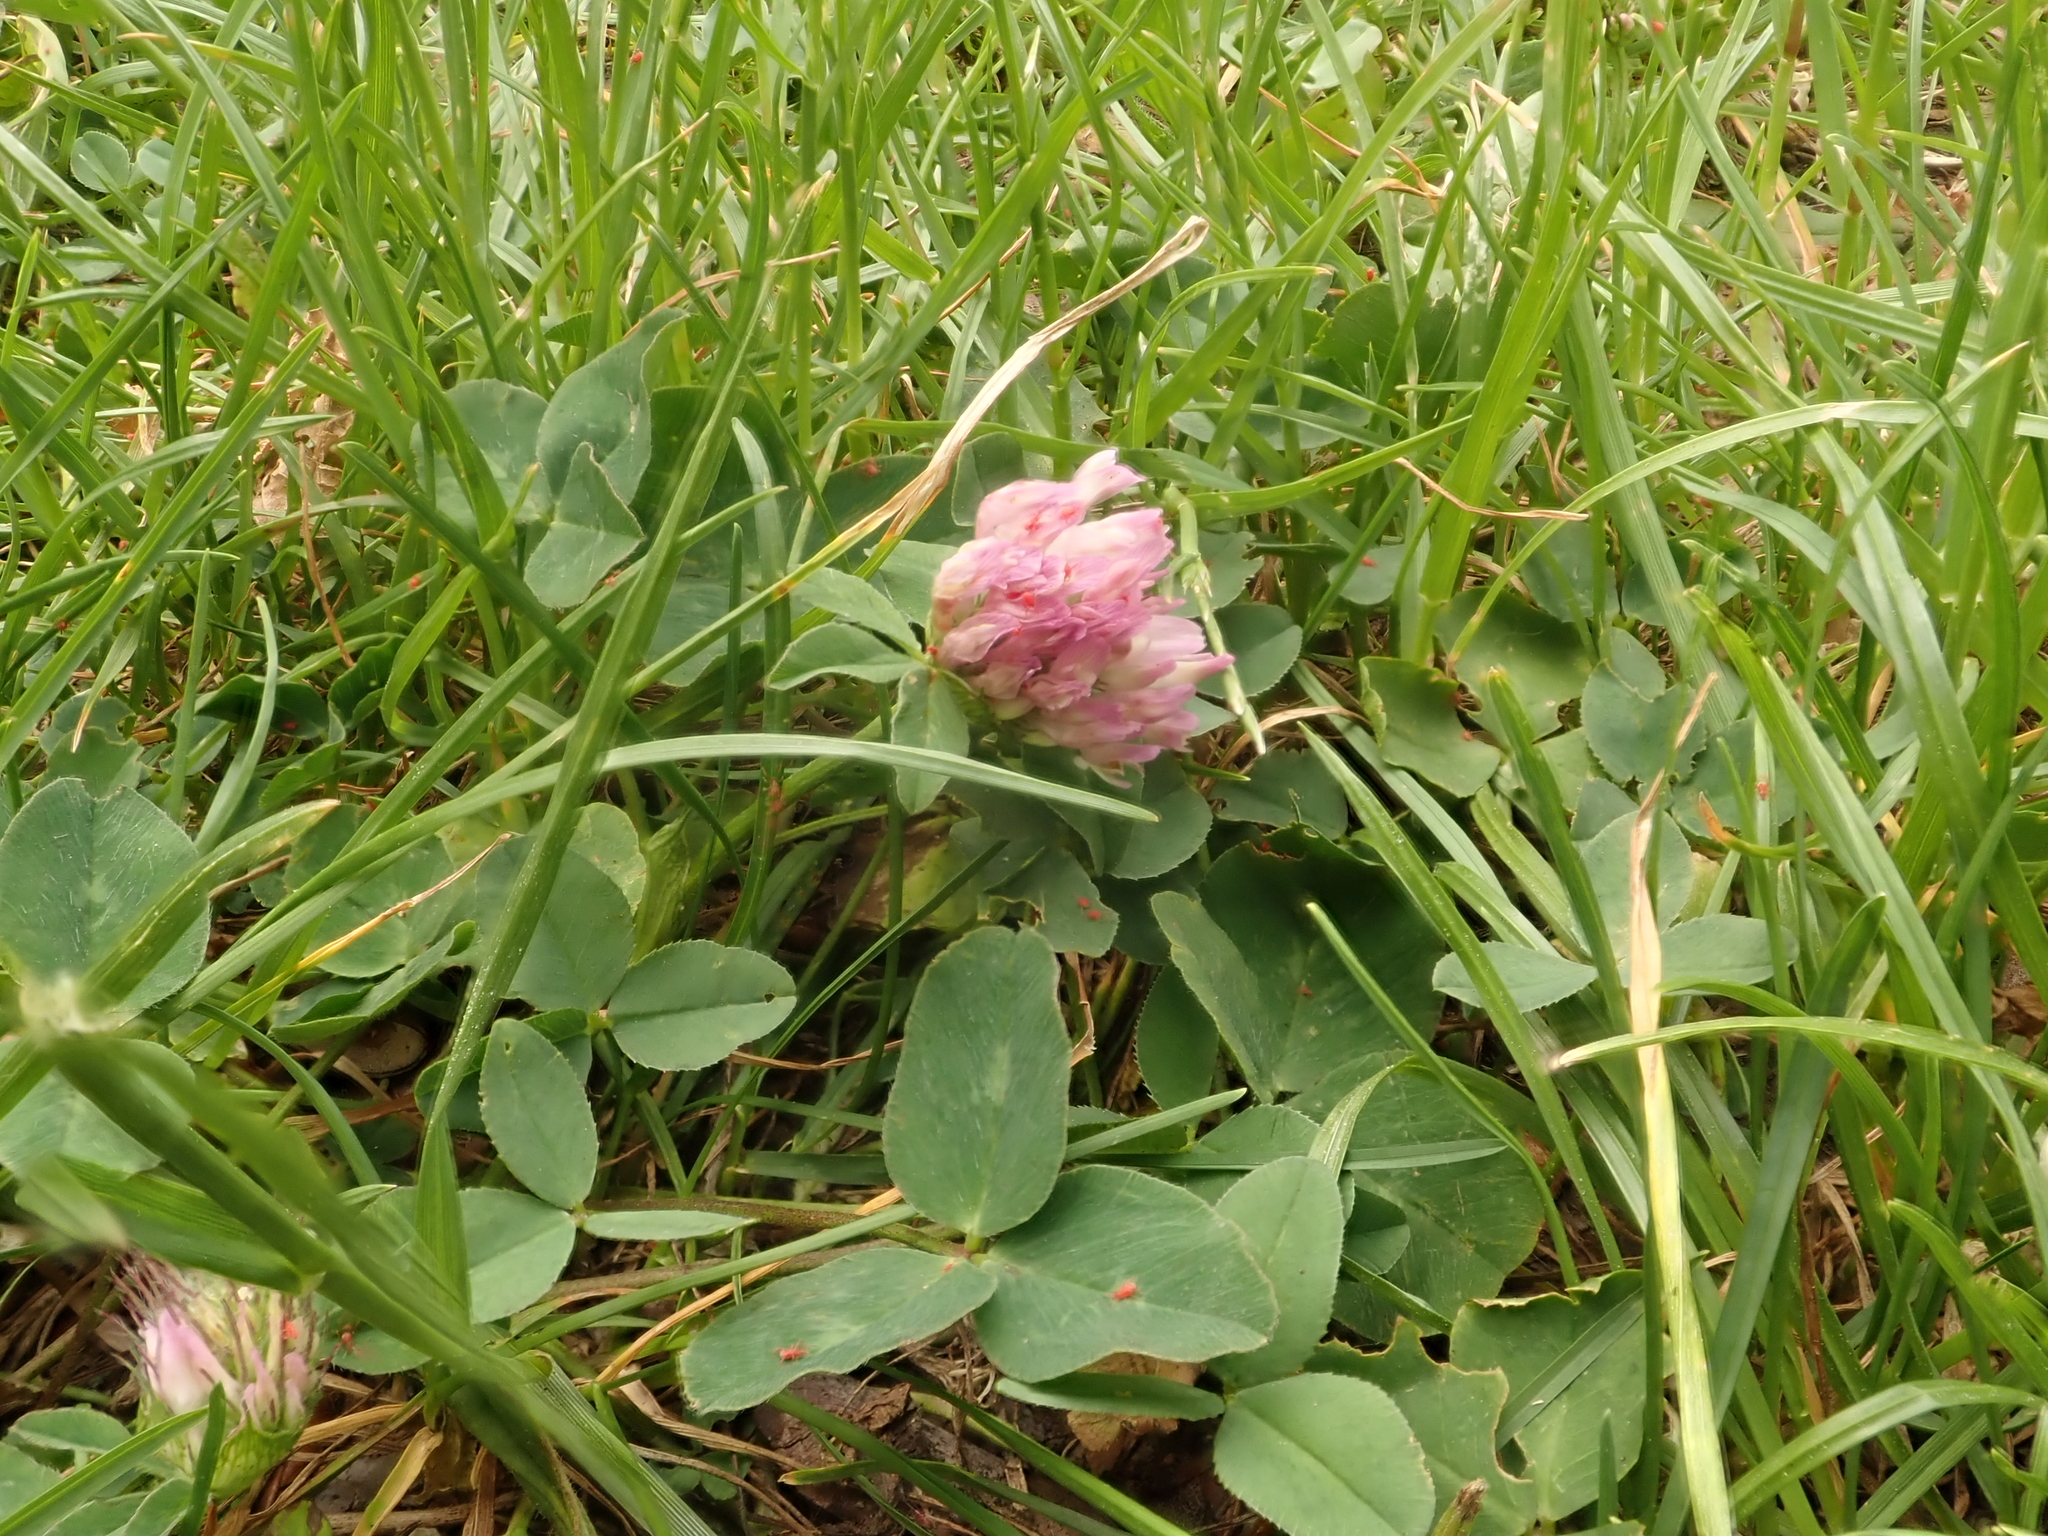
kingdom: Plantae
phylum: Tracheophyta
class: Magnoliopsida
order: Fabales
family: Fabaceae
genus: Trifolium
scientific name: Trifolium pratense
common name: Red clover
